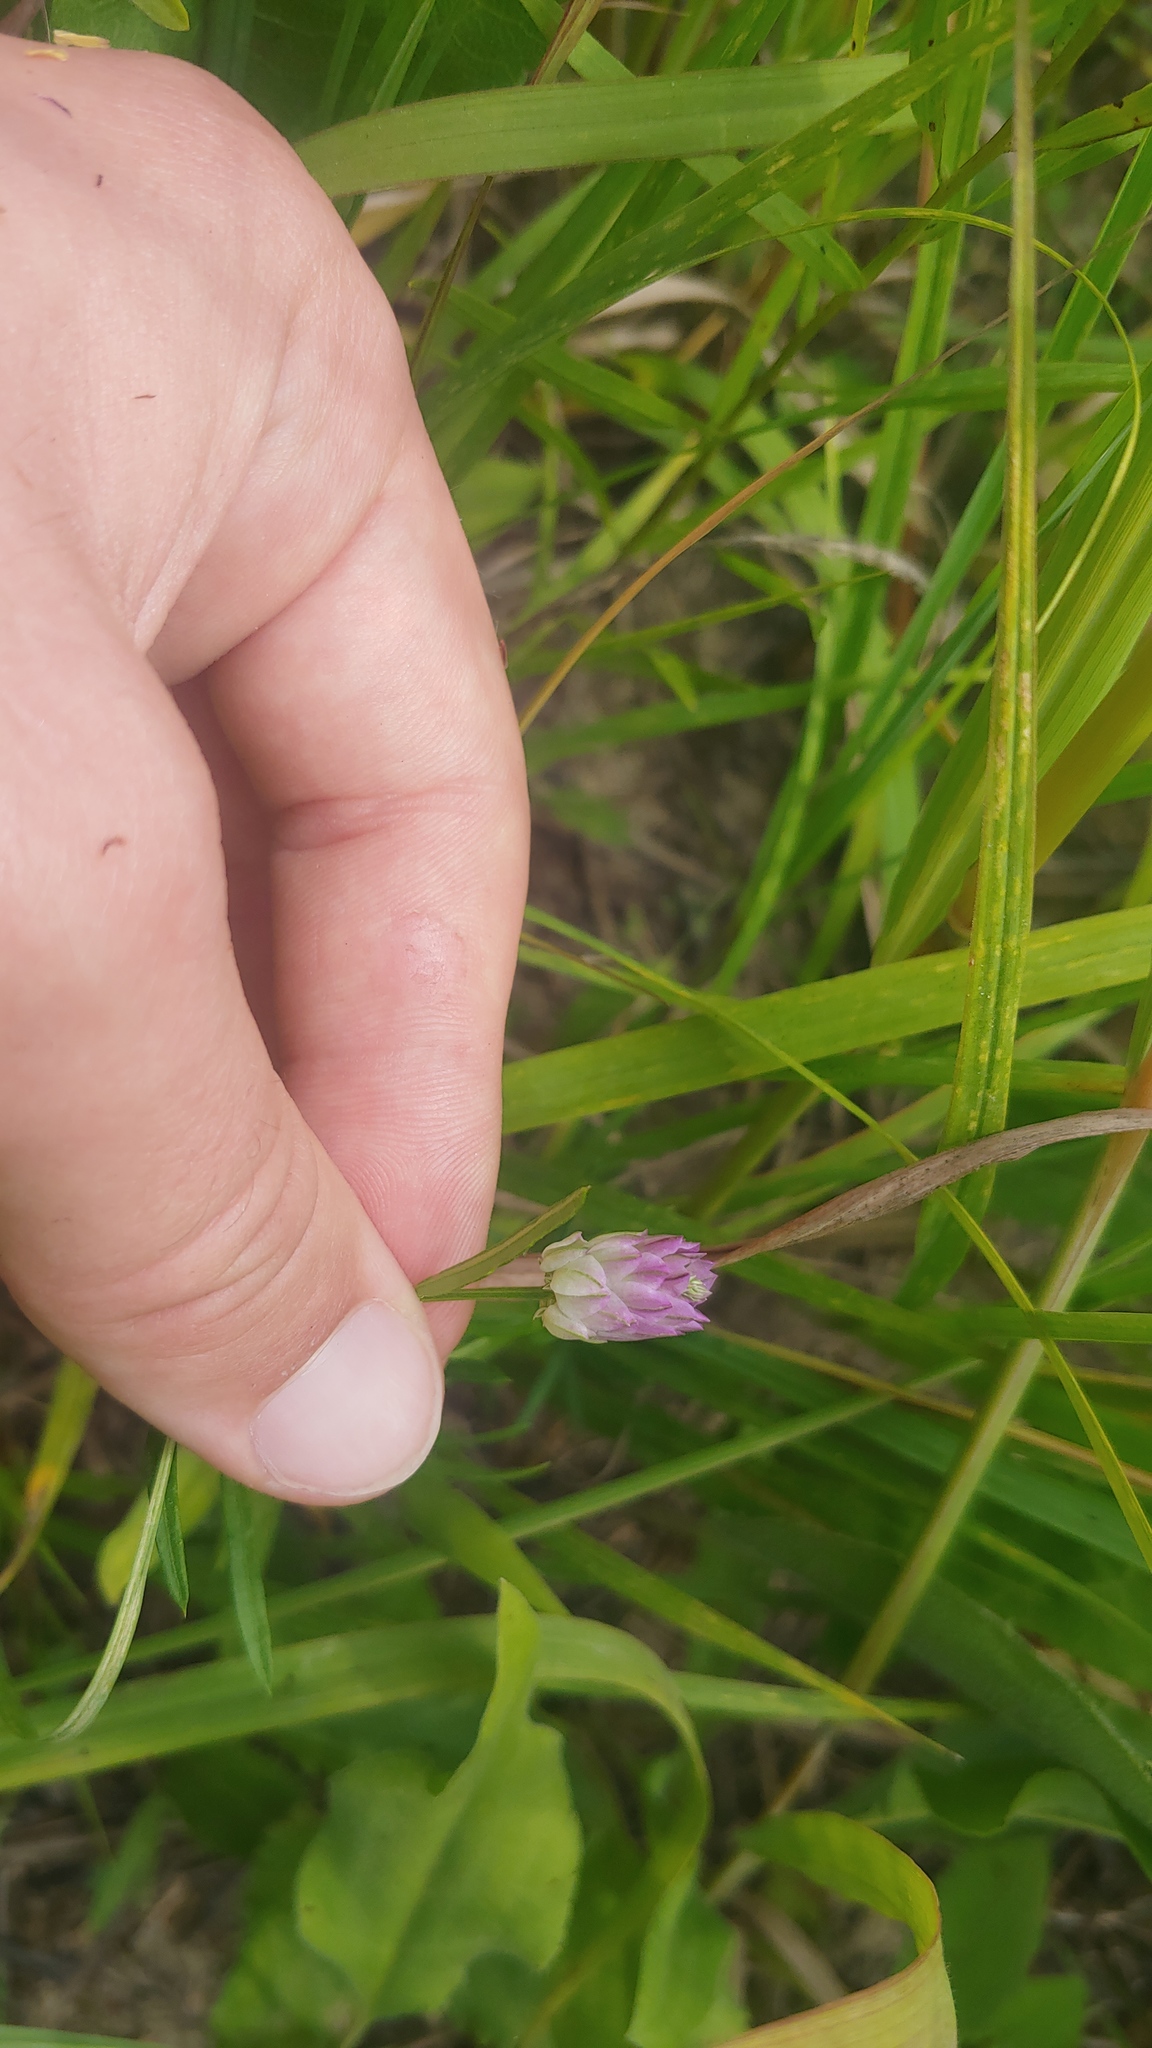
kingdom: Plantae
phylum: Tracheophyta
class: Magnoliopsida
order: Fabales
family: Polygalaceae
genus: Polygala
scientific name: Polygala sanguinea
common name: Blood milkwort
